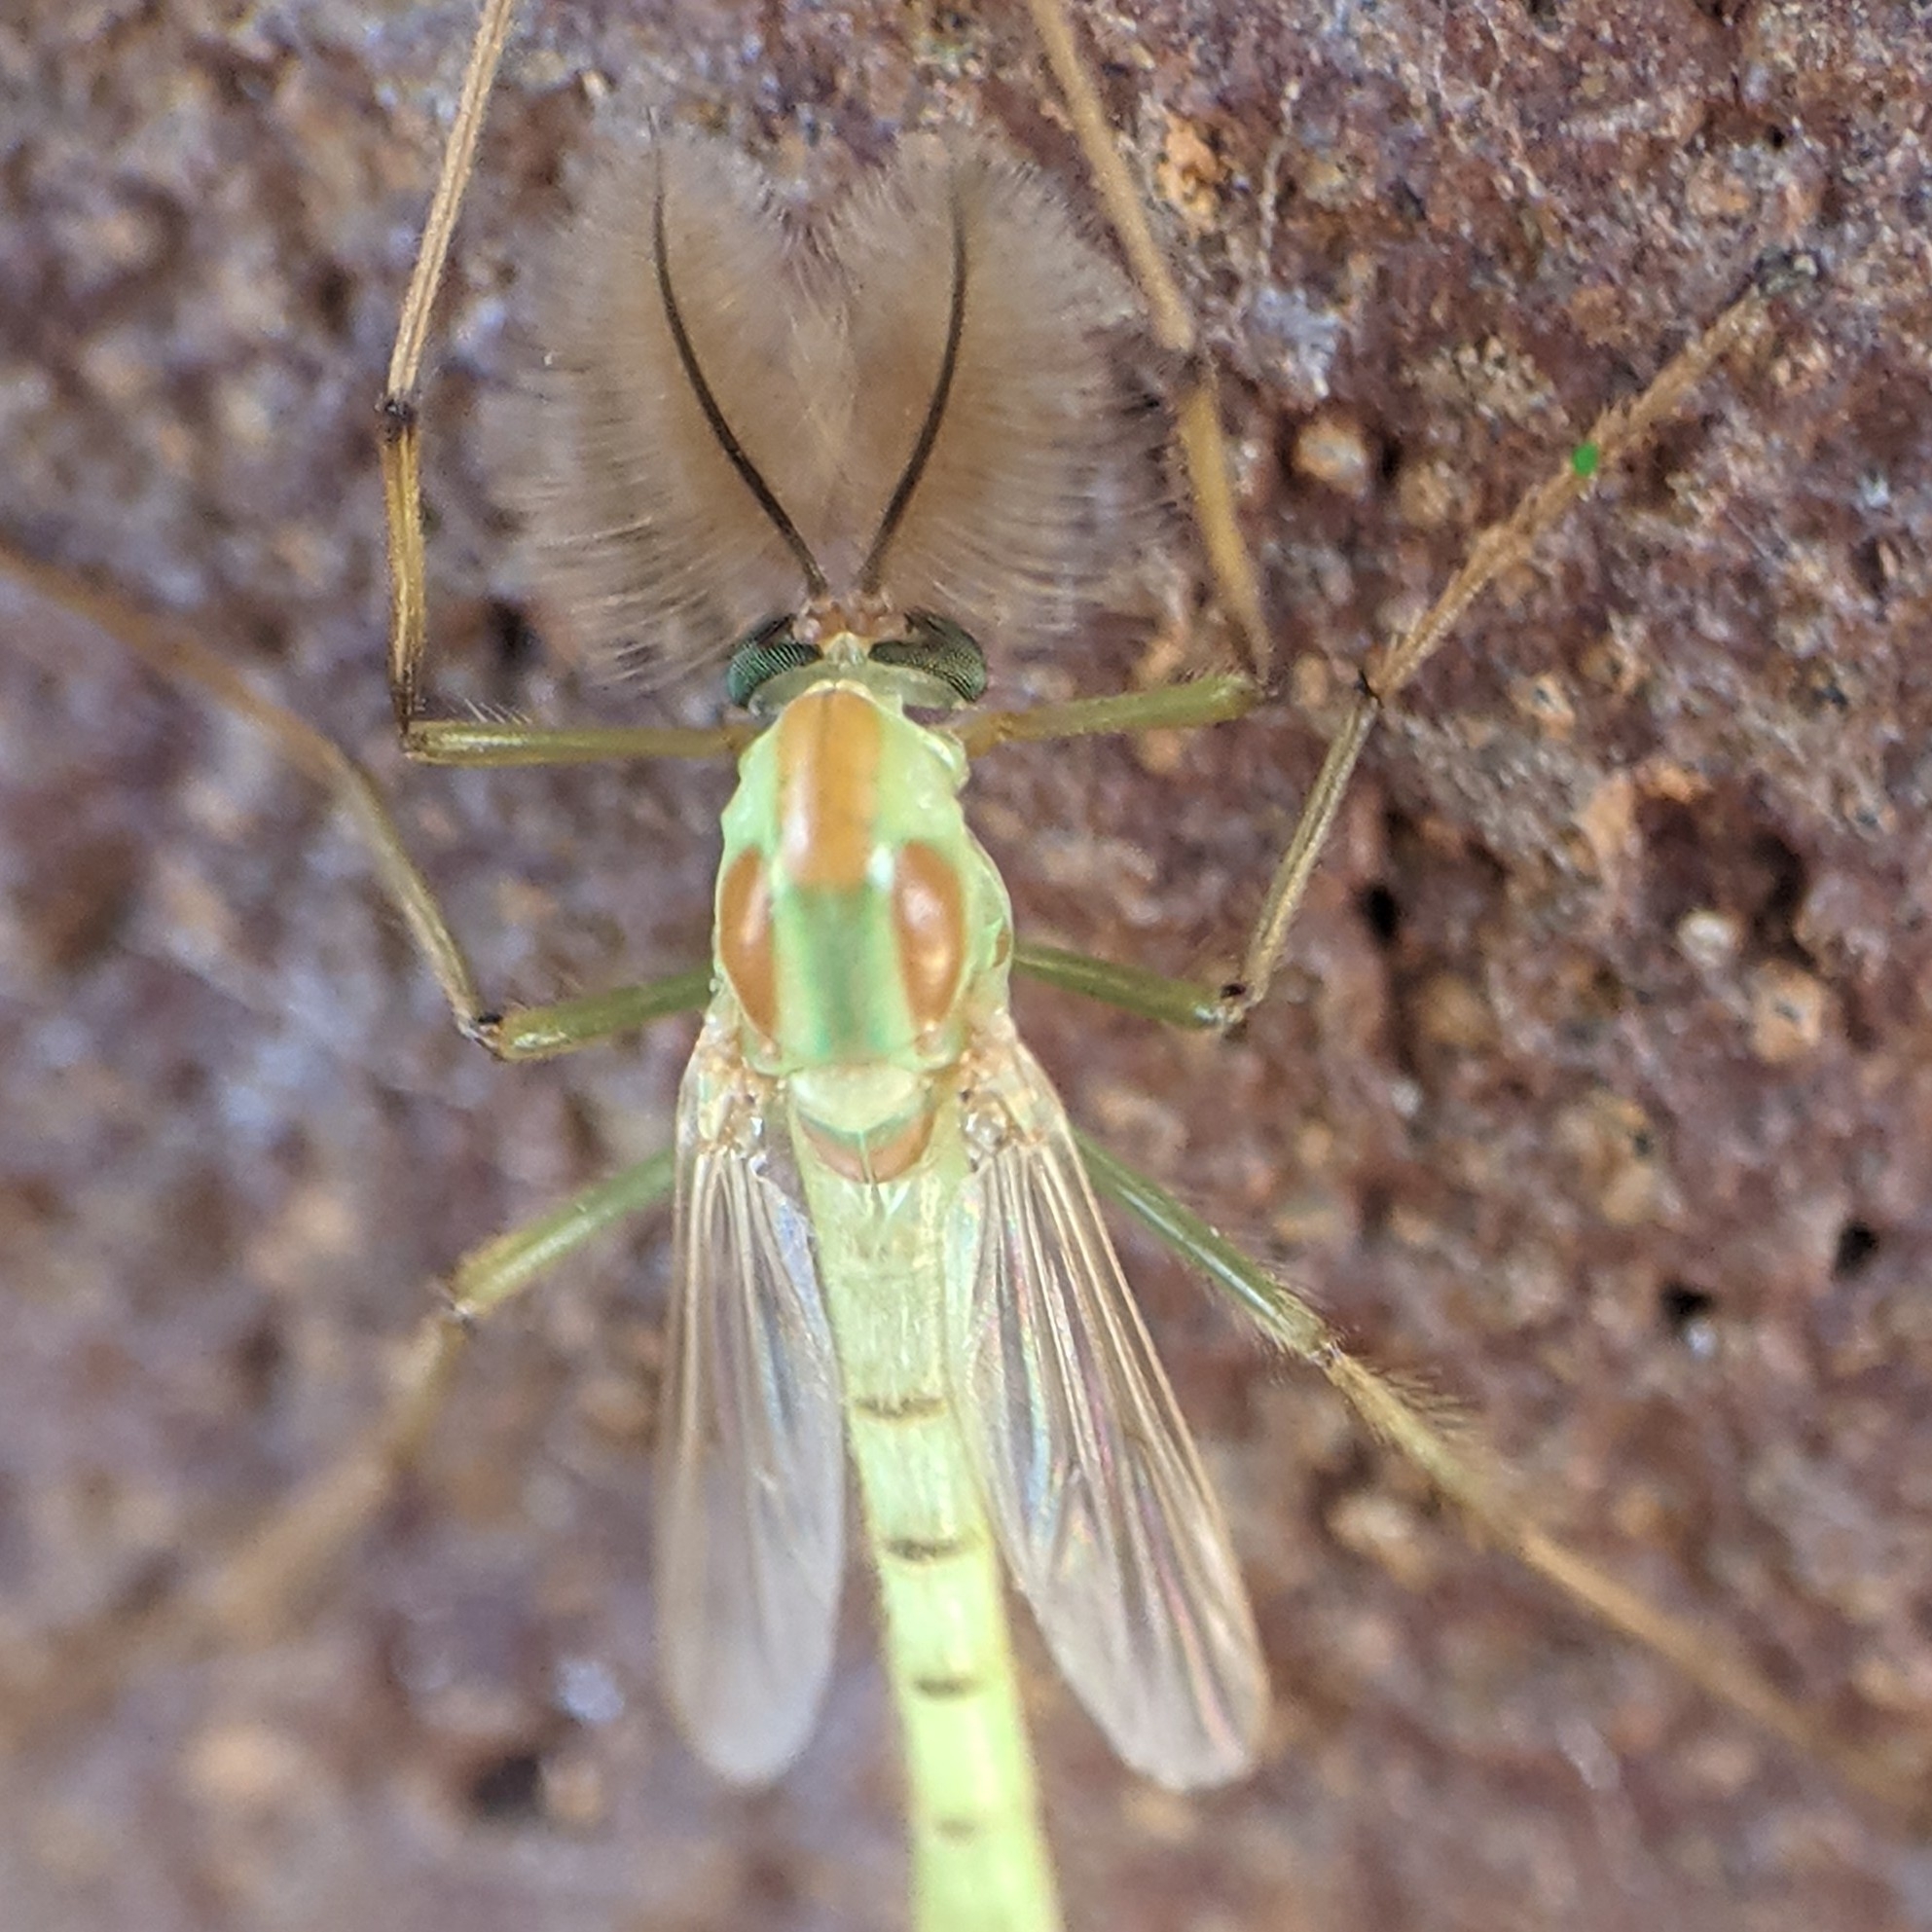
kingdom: Animalia
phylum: Arthropoda
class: Insecta
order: Diptera
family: Chironomidae
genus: Axarus
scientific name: Axarus
